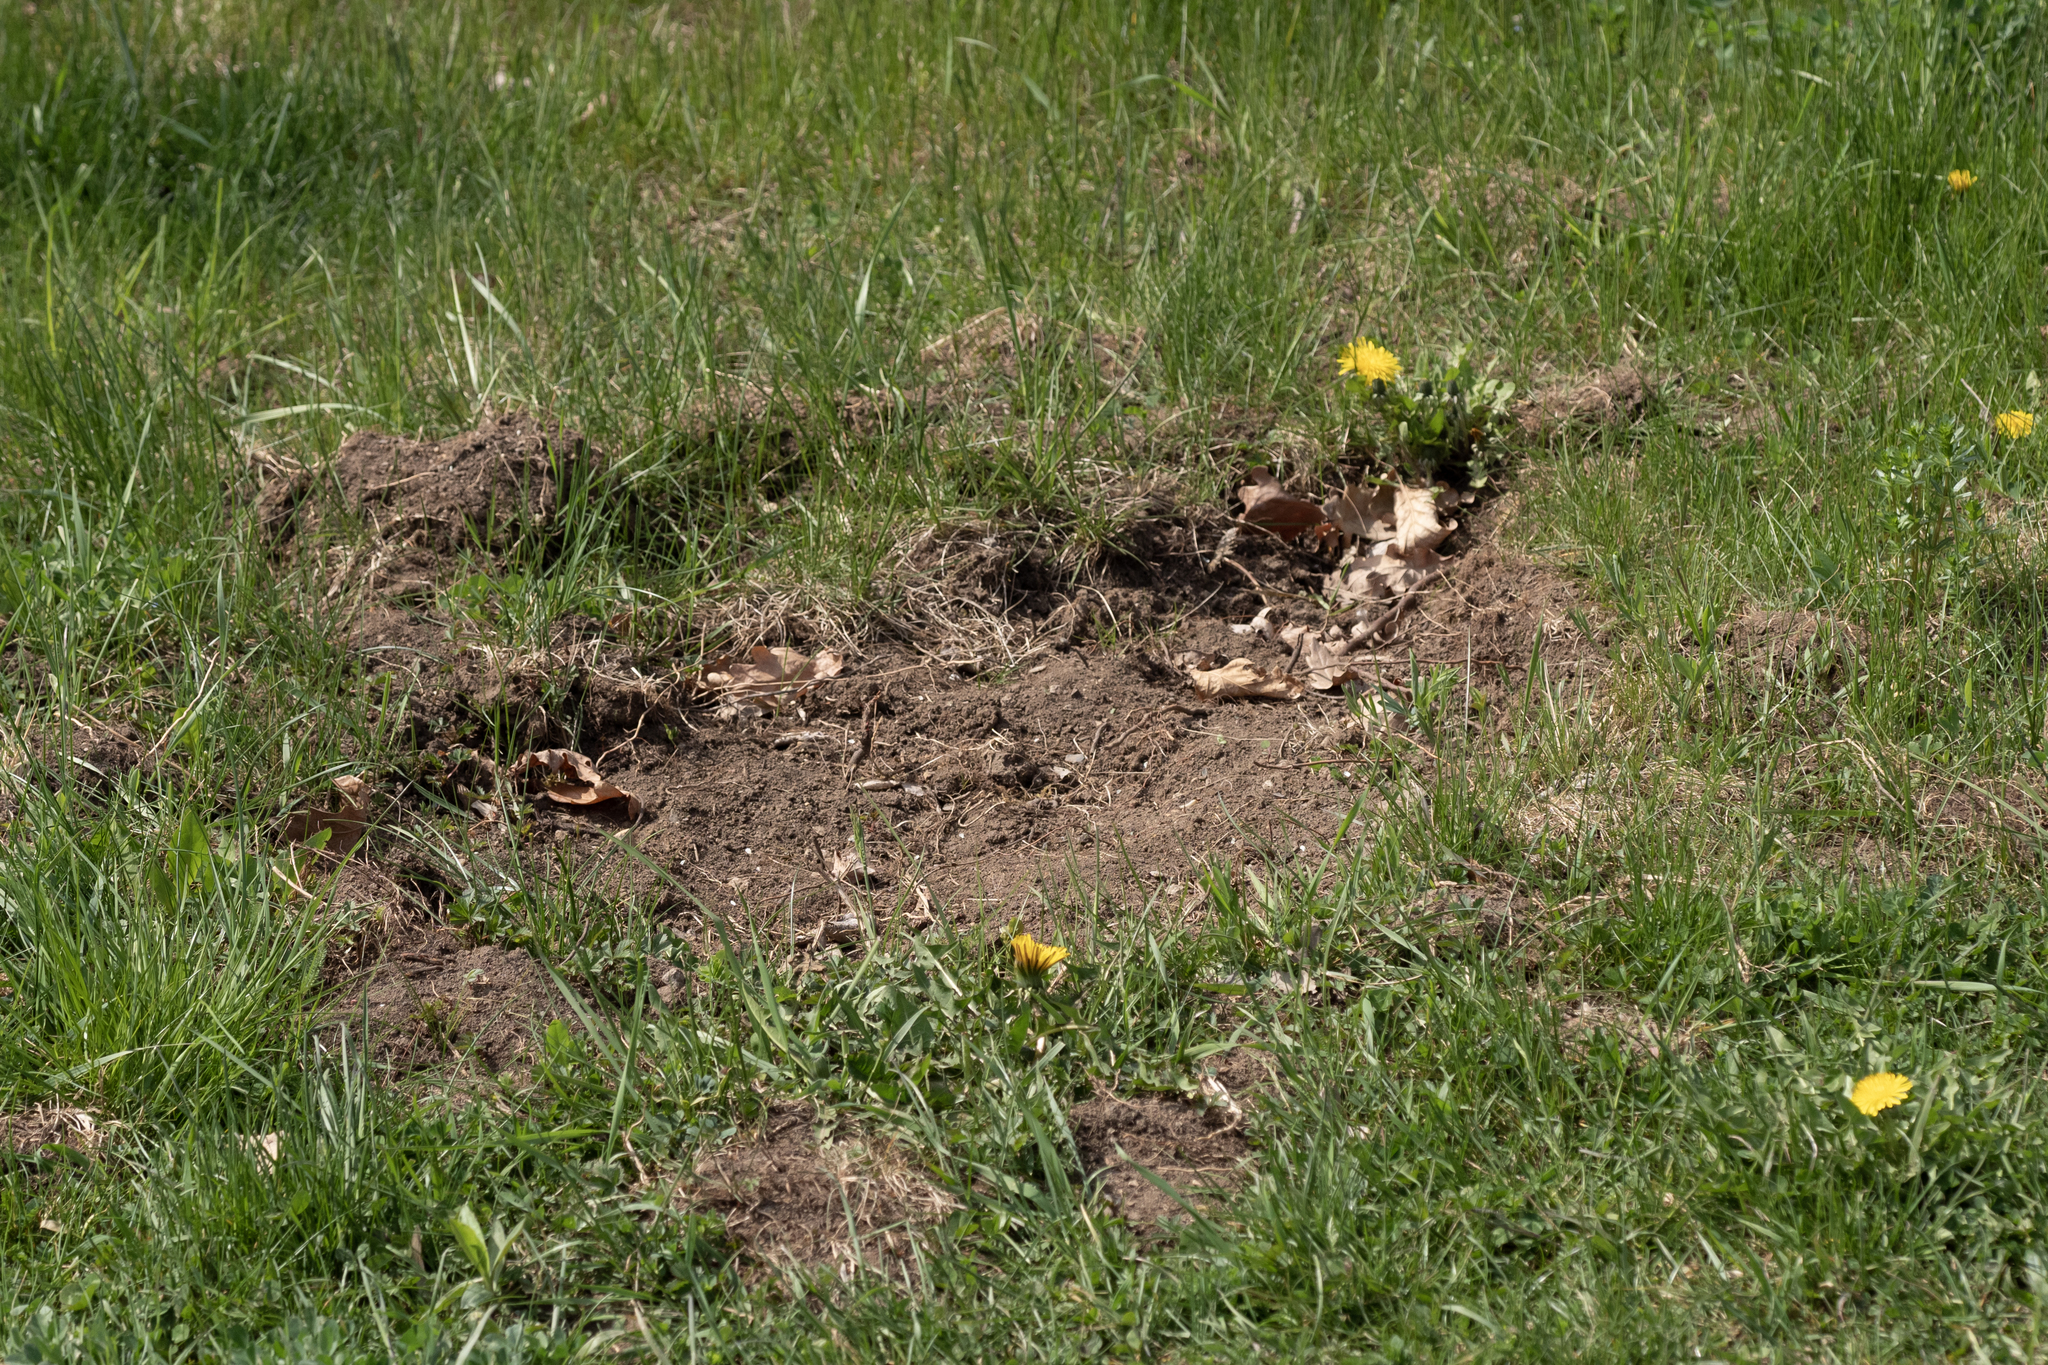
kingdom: Animalia
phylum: Chordata
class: Mammalia
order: Artiodactyla
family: Suidae
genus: Sus
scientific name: Sus scrofa
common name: Wild boar
